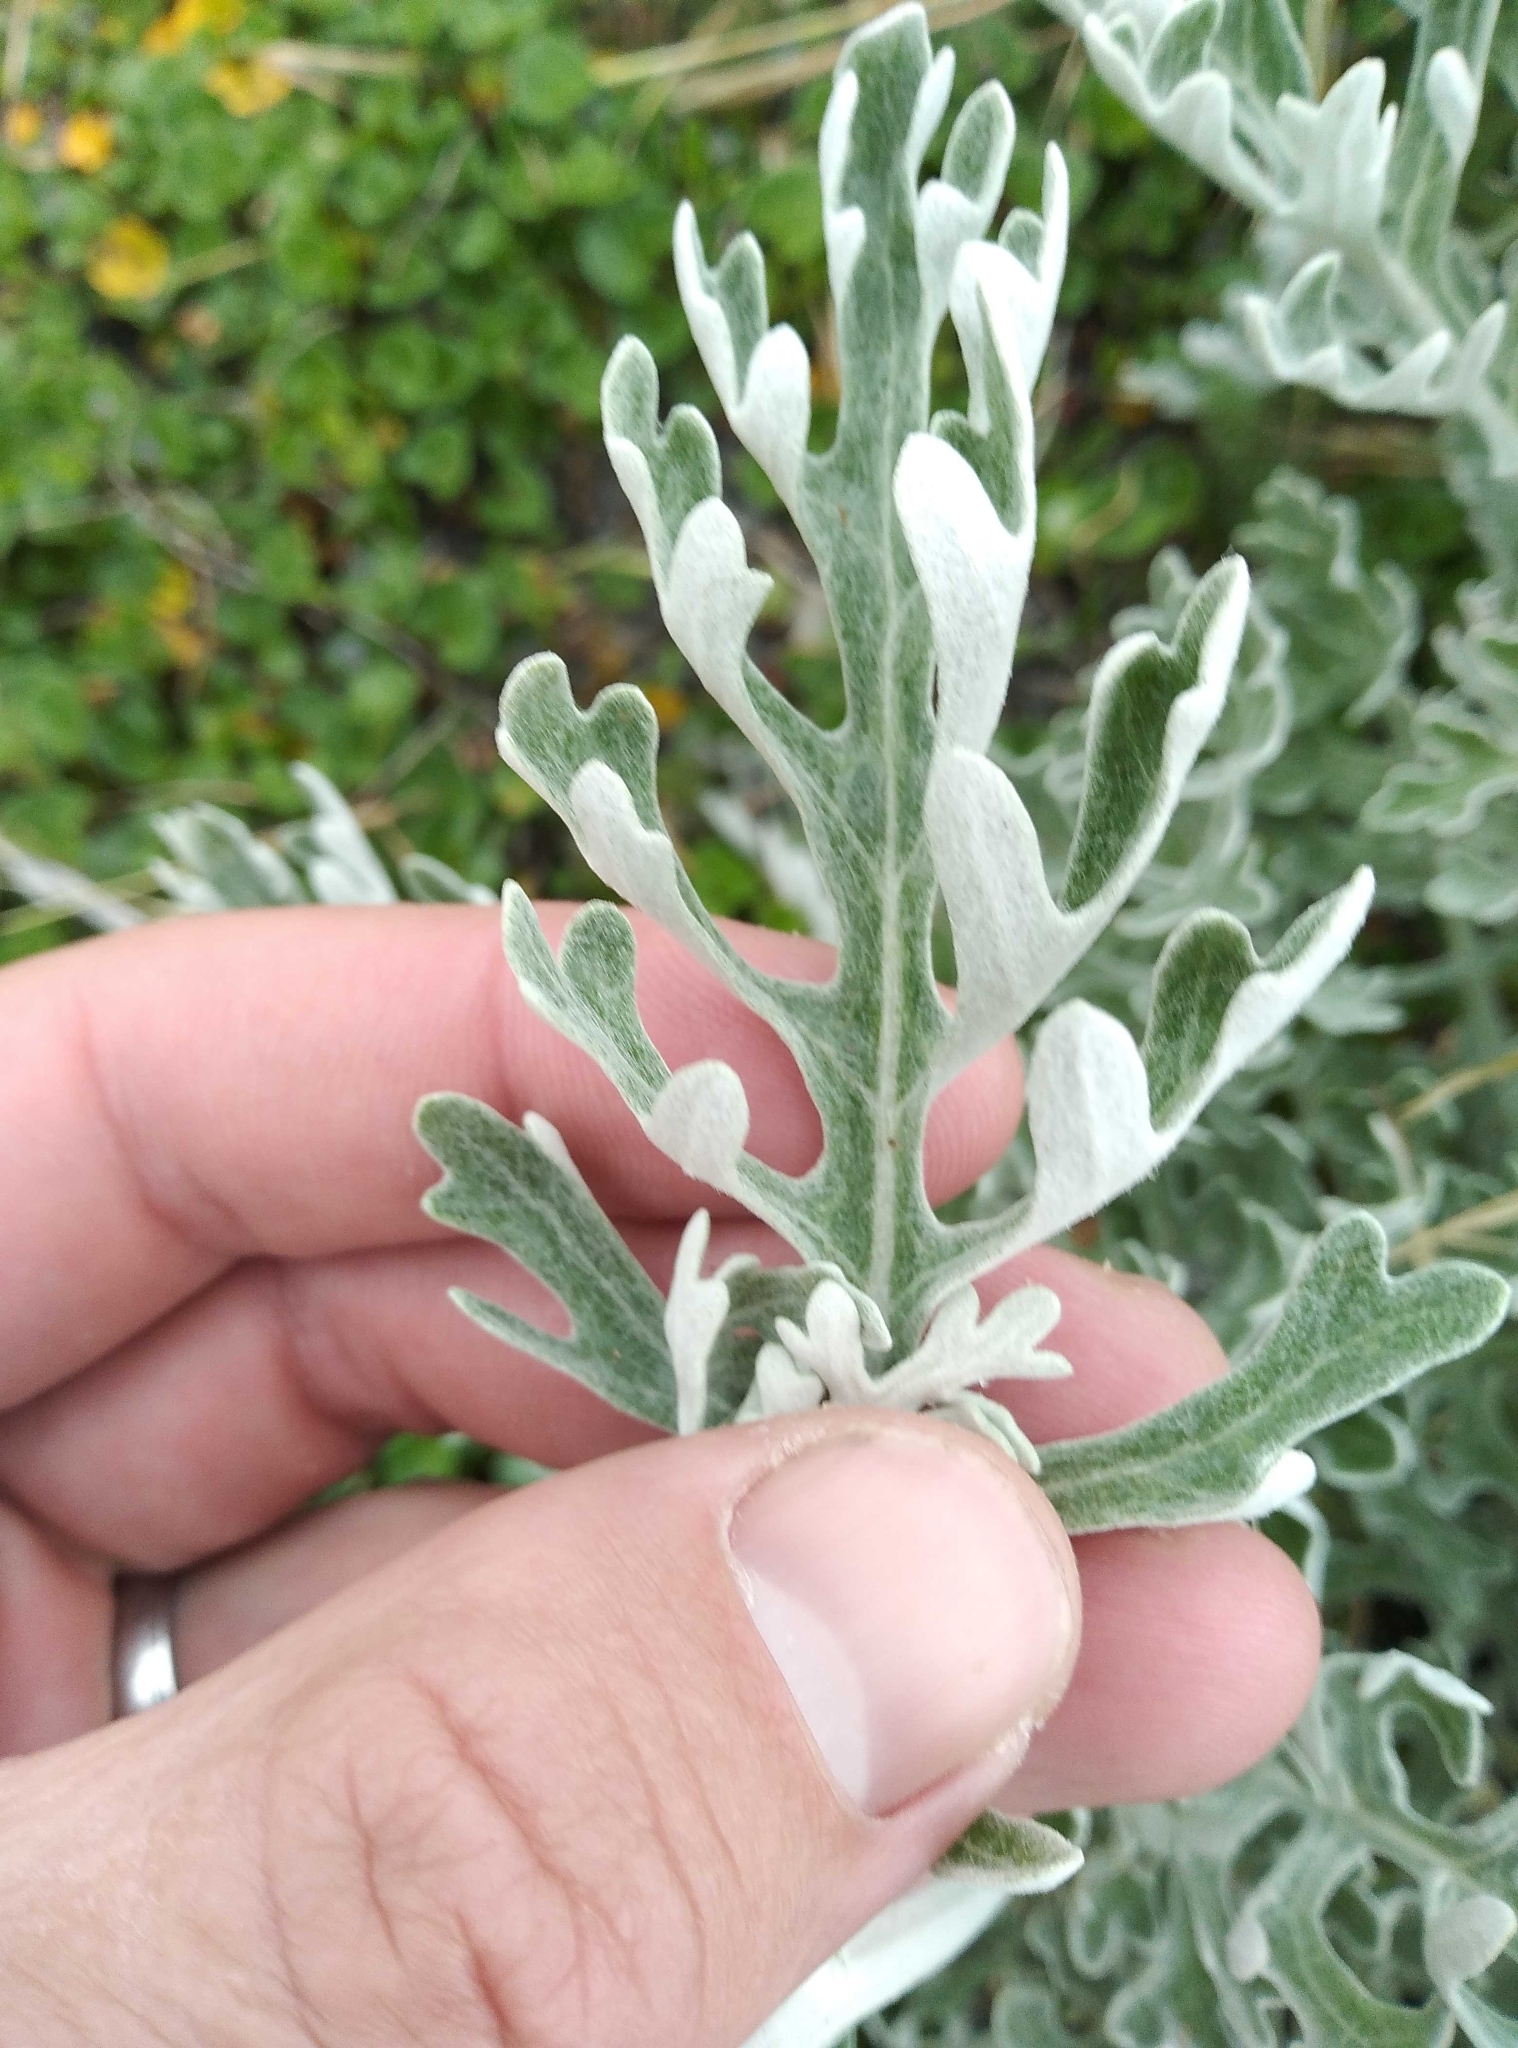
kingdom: Plantae
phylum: Tracheophyta
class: Magnoliopsida
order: Asterales
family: Asteraceae
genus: Jacobaea
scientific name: Jacobaea maritima
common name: Silver ragwort
